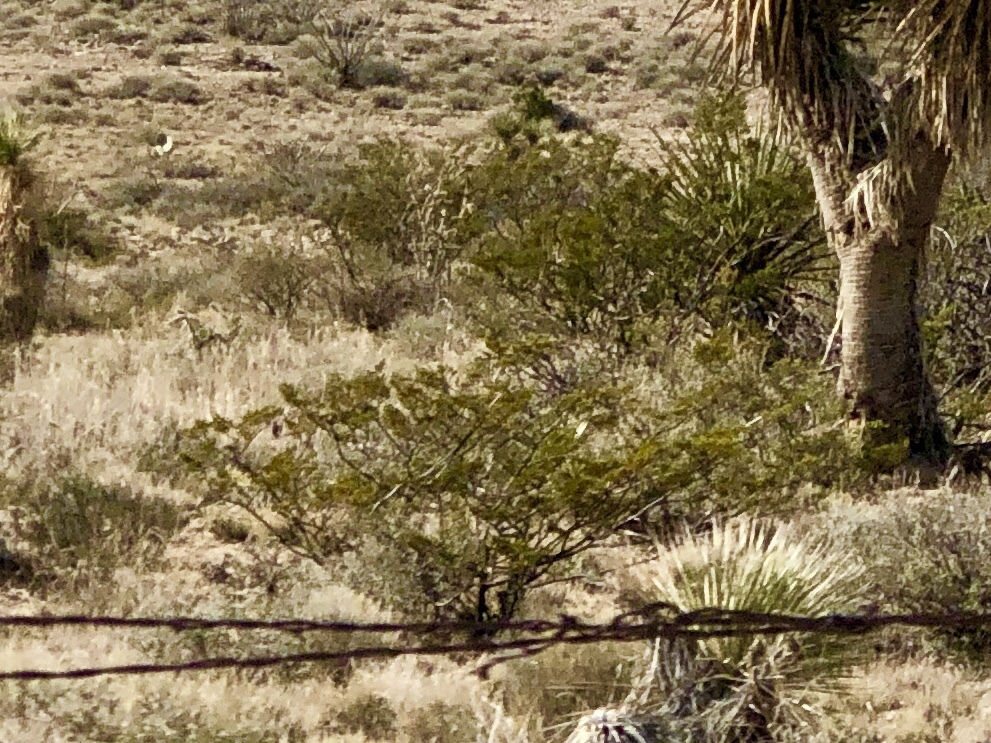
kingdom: Plantae
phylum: Tracheophyta
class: Magnoliopsida
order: Zygophyllales
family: Zygophyllaceae
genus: Larrea
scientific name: Larrea tridentata
